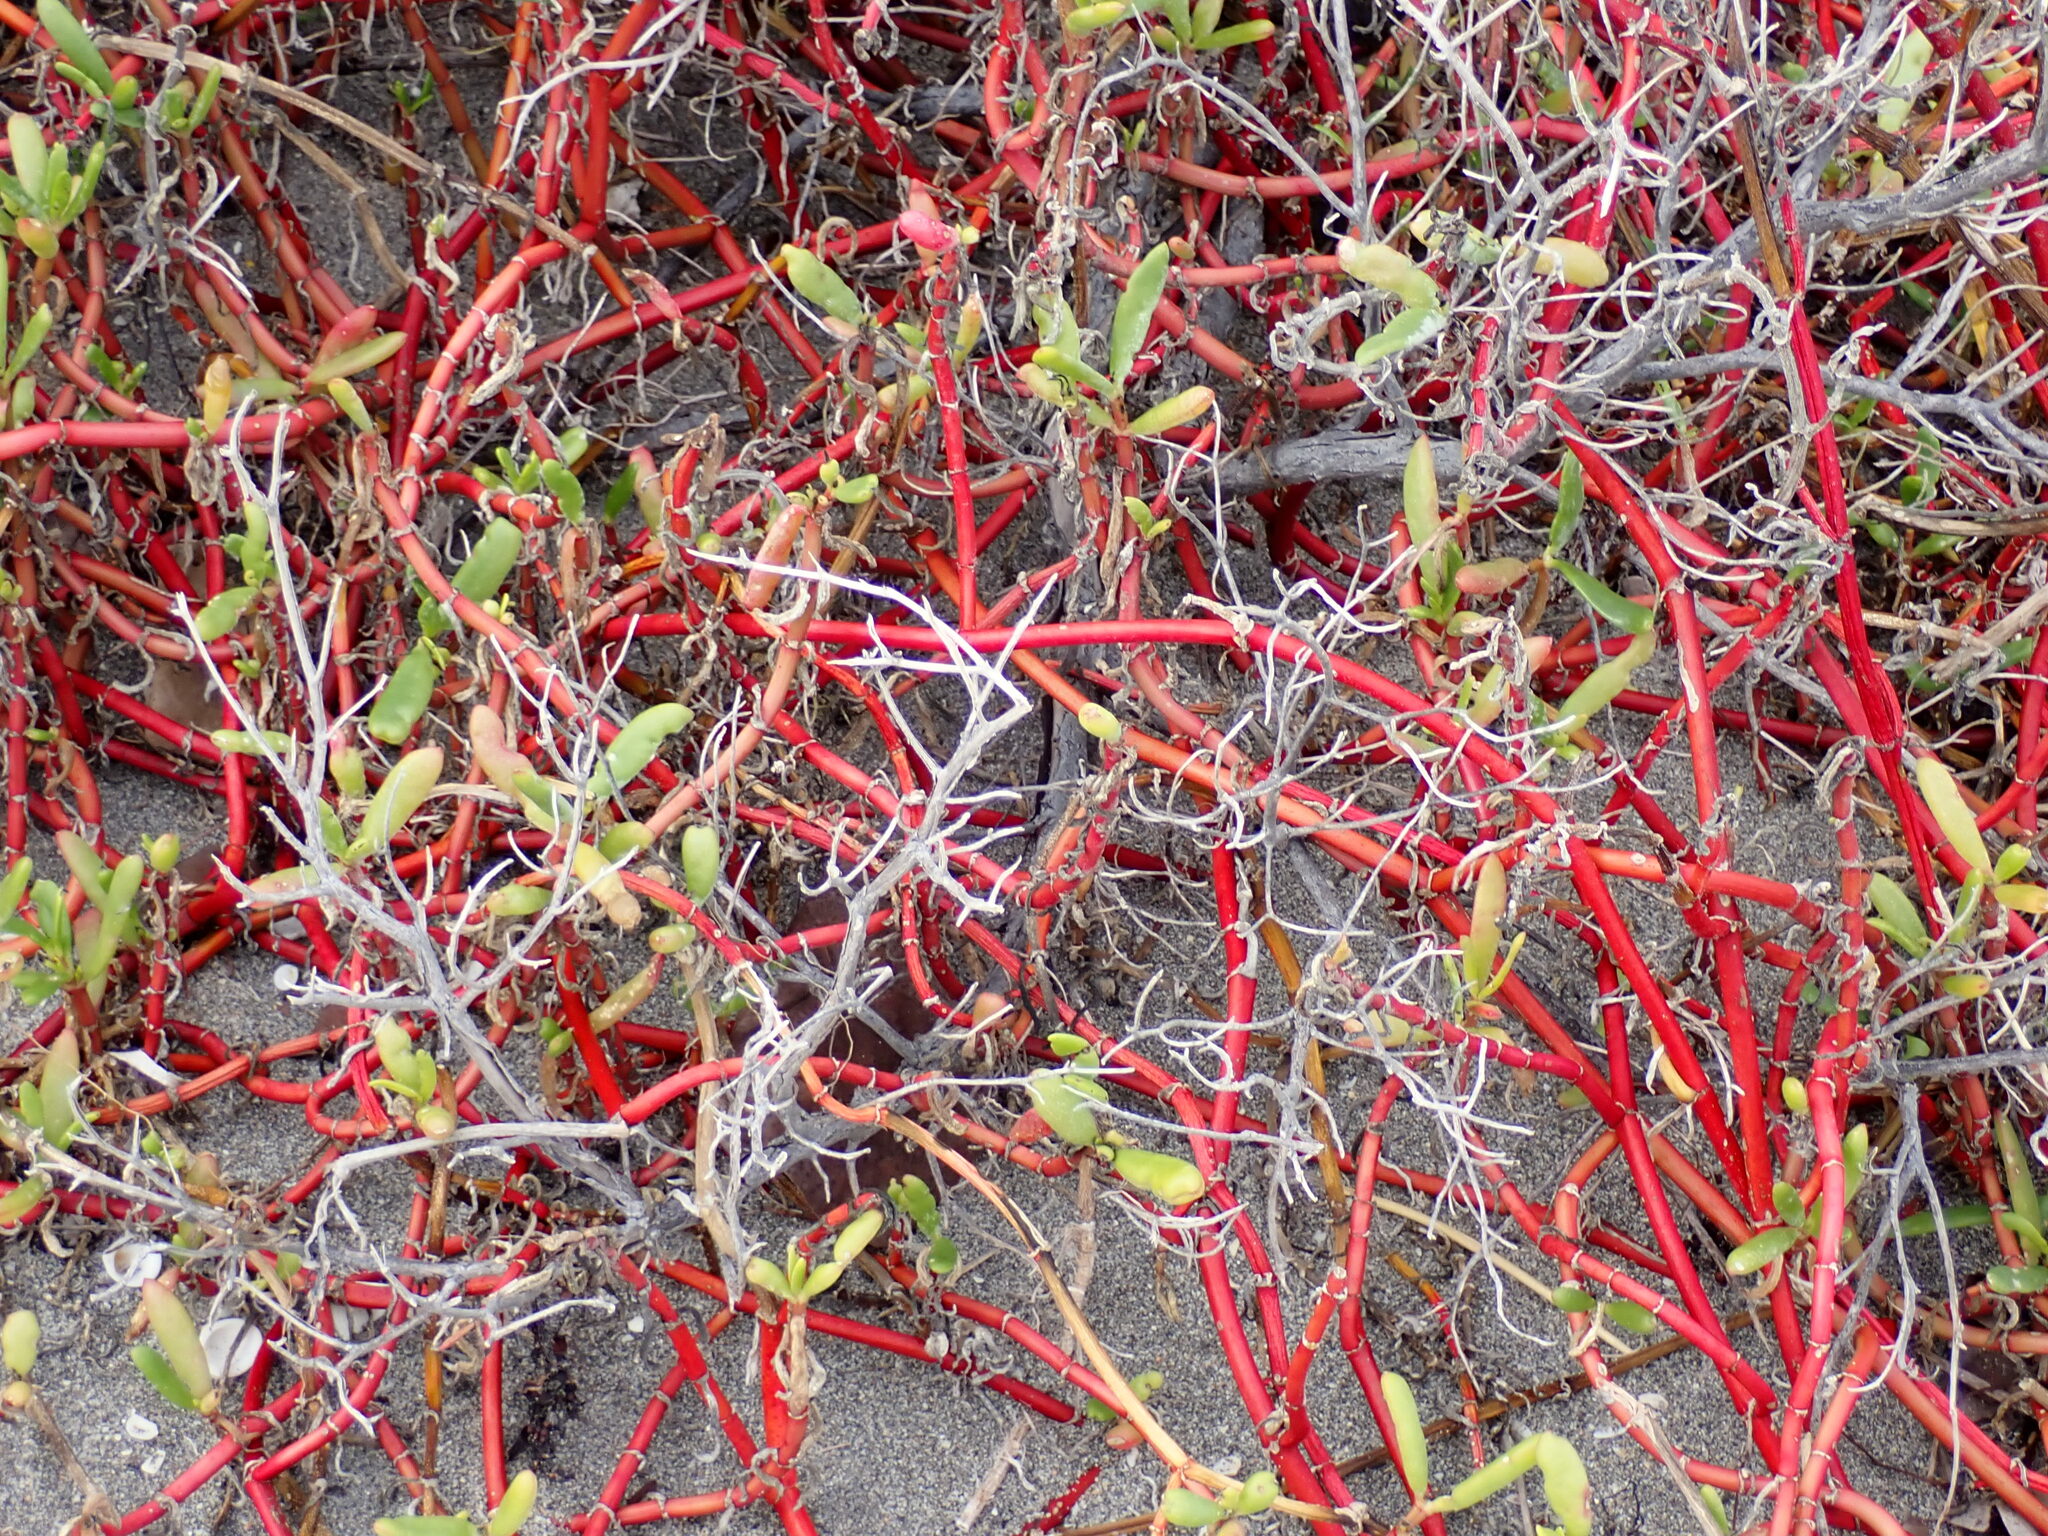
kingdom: Plantae
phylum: Tracheophyta
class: Magnoliopsida
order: Caryophyllales
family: Aizoaceae
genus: Sesuvium
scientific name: Sesuvium portulacastrum
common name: Sea-purslane
